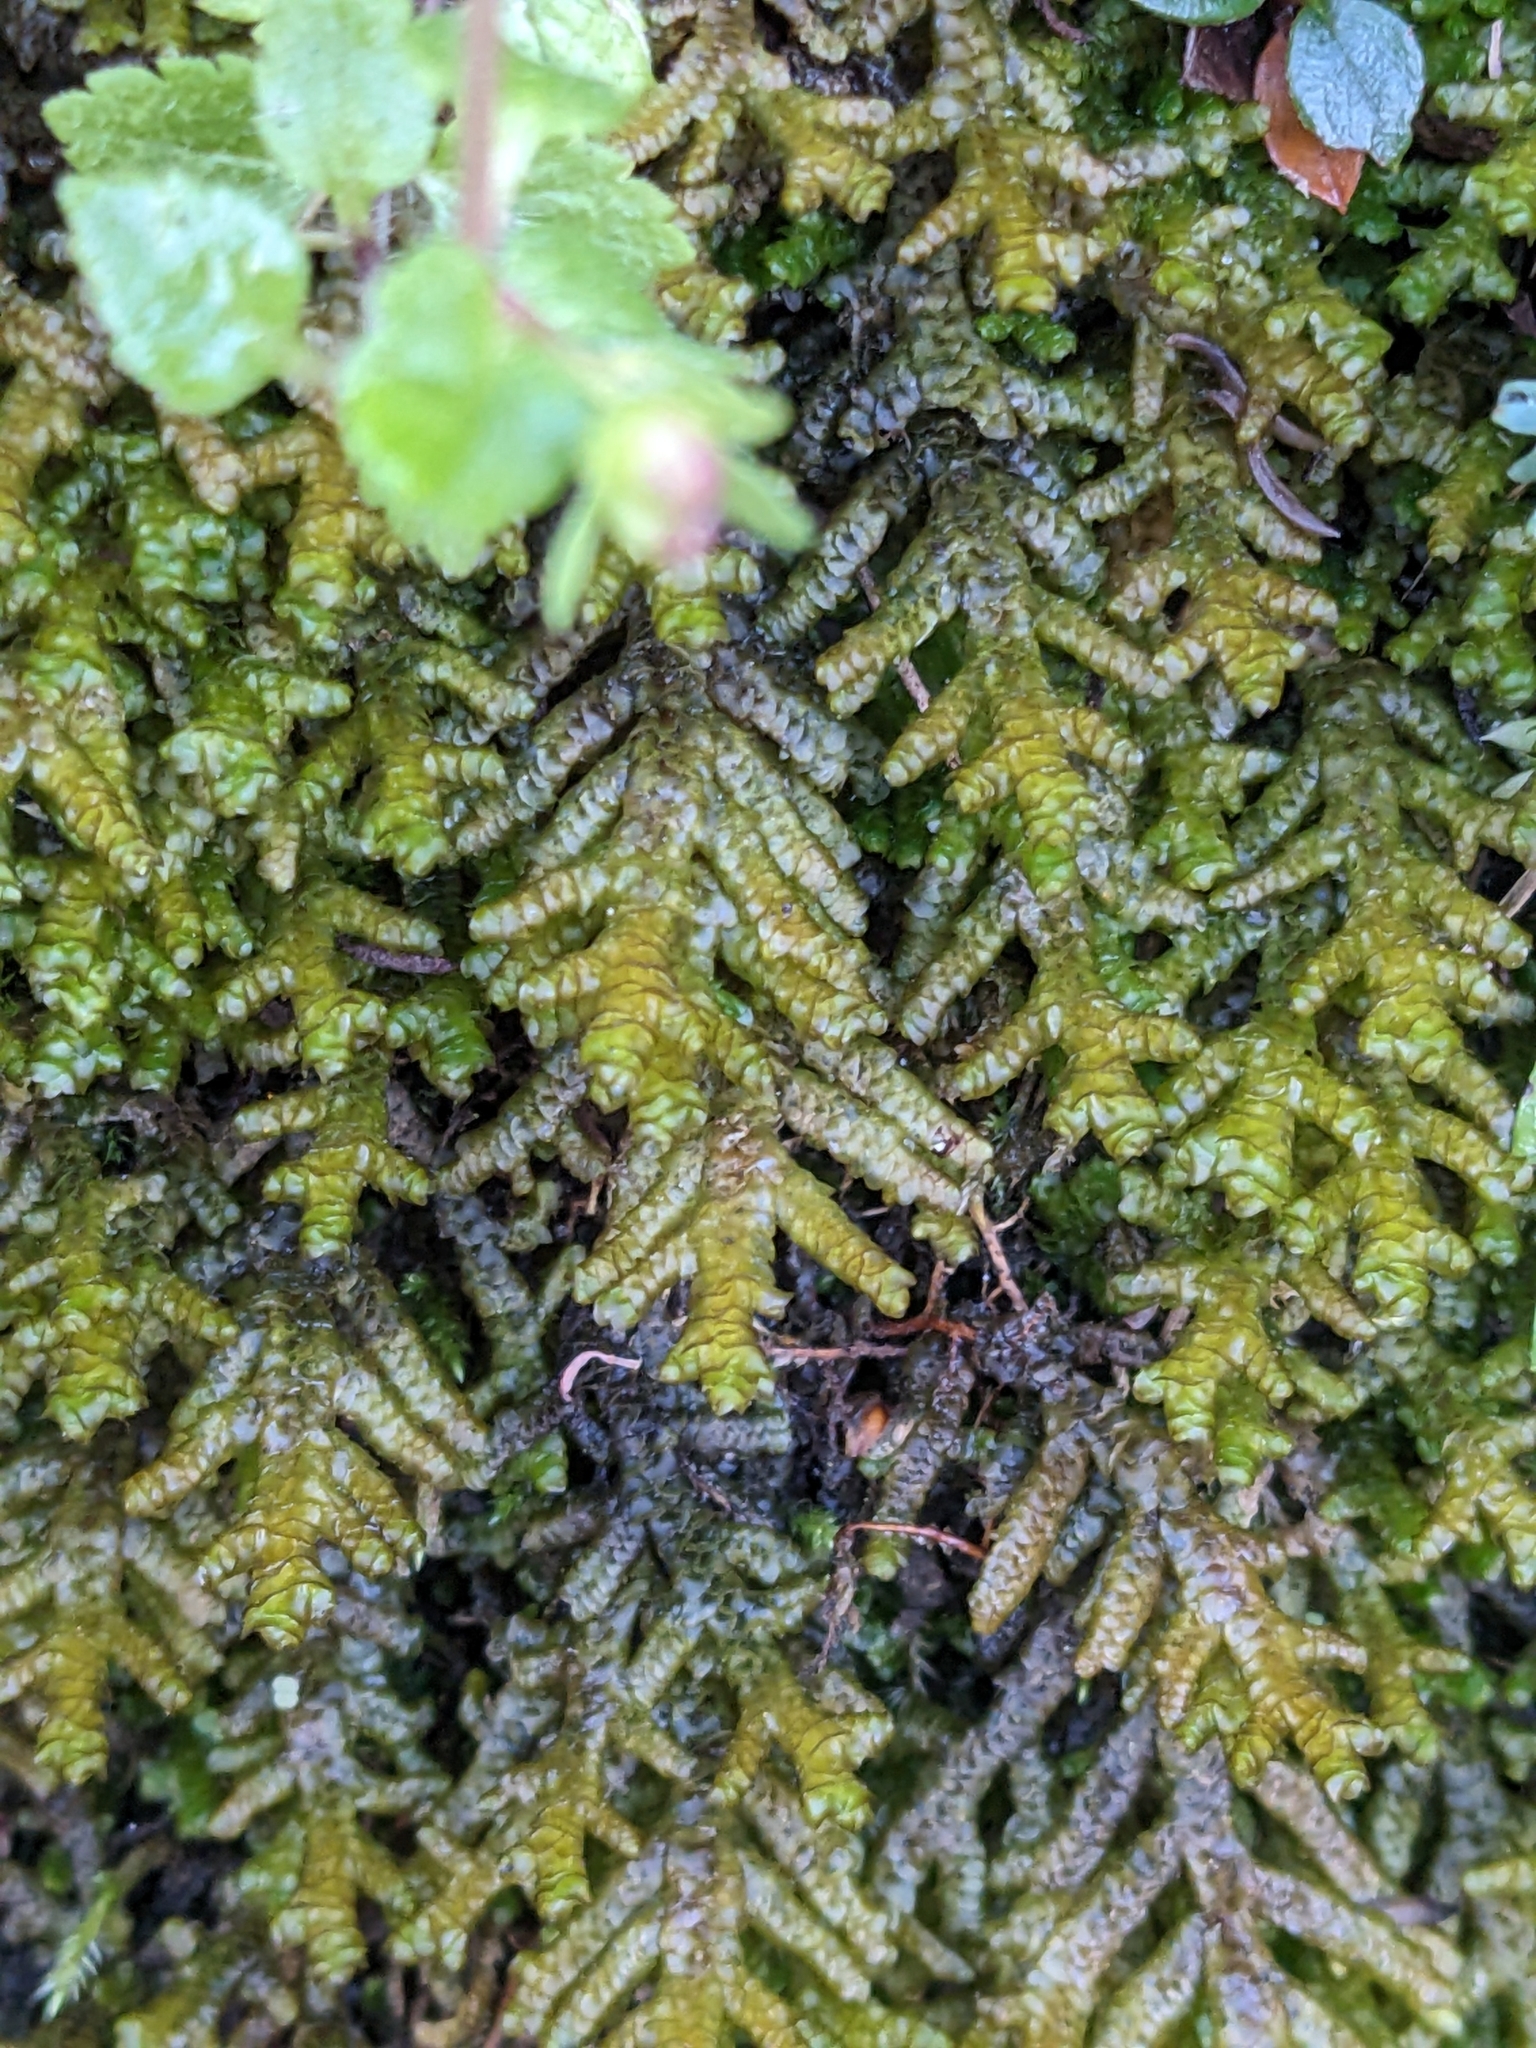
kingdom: Plantae
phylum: Marchantiophyta
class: Jungermanniopsida
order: Porellales
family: Porellaceae
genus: Porella
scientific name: Porella platyphylla
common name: Wall scalewort
